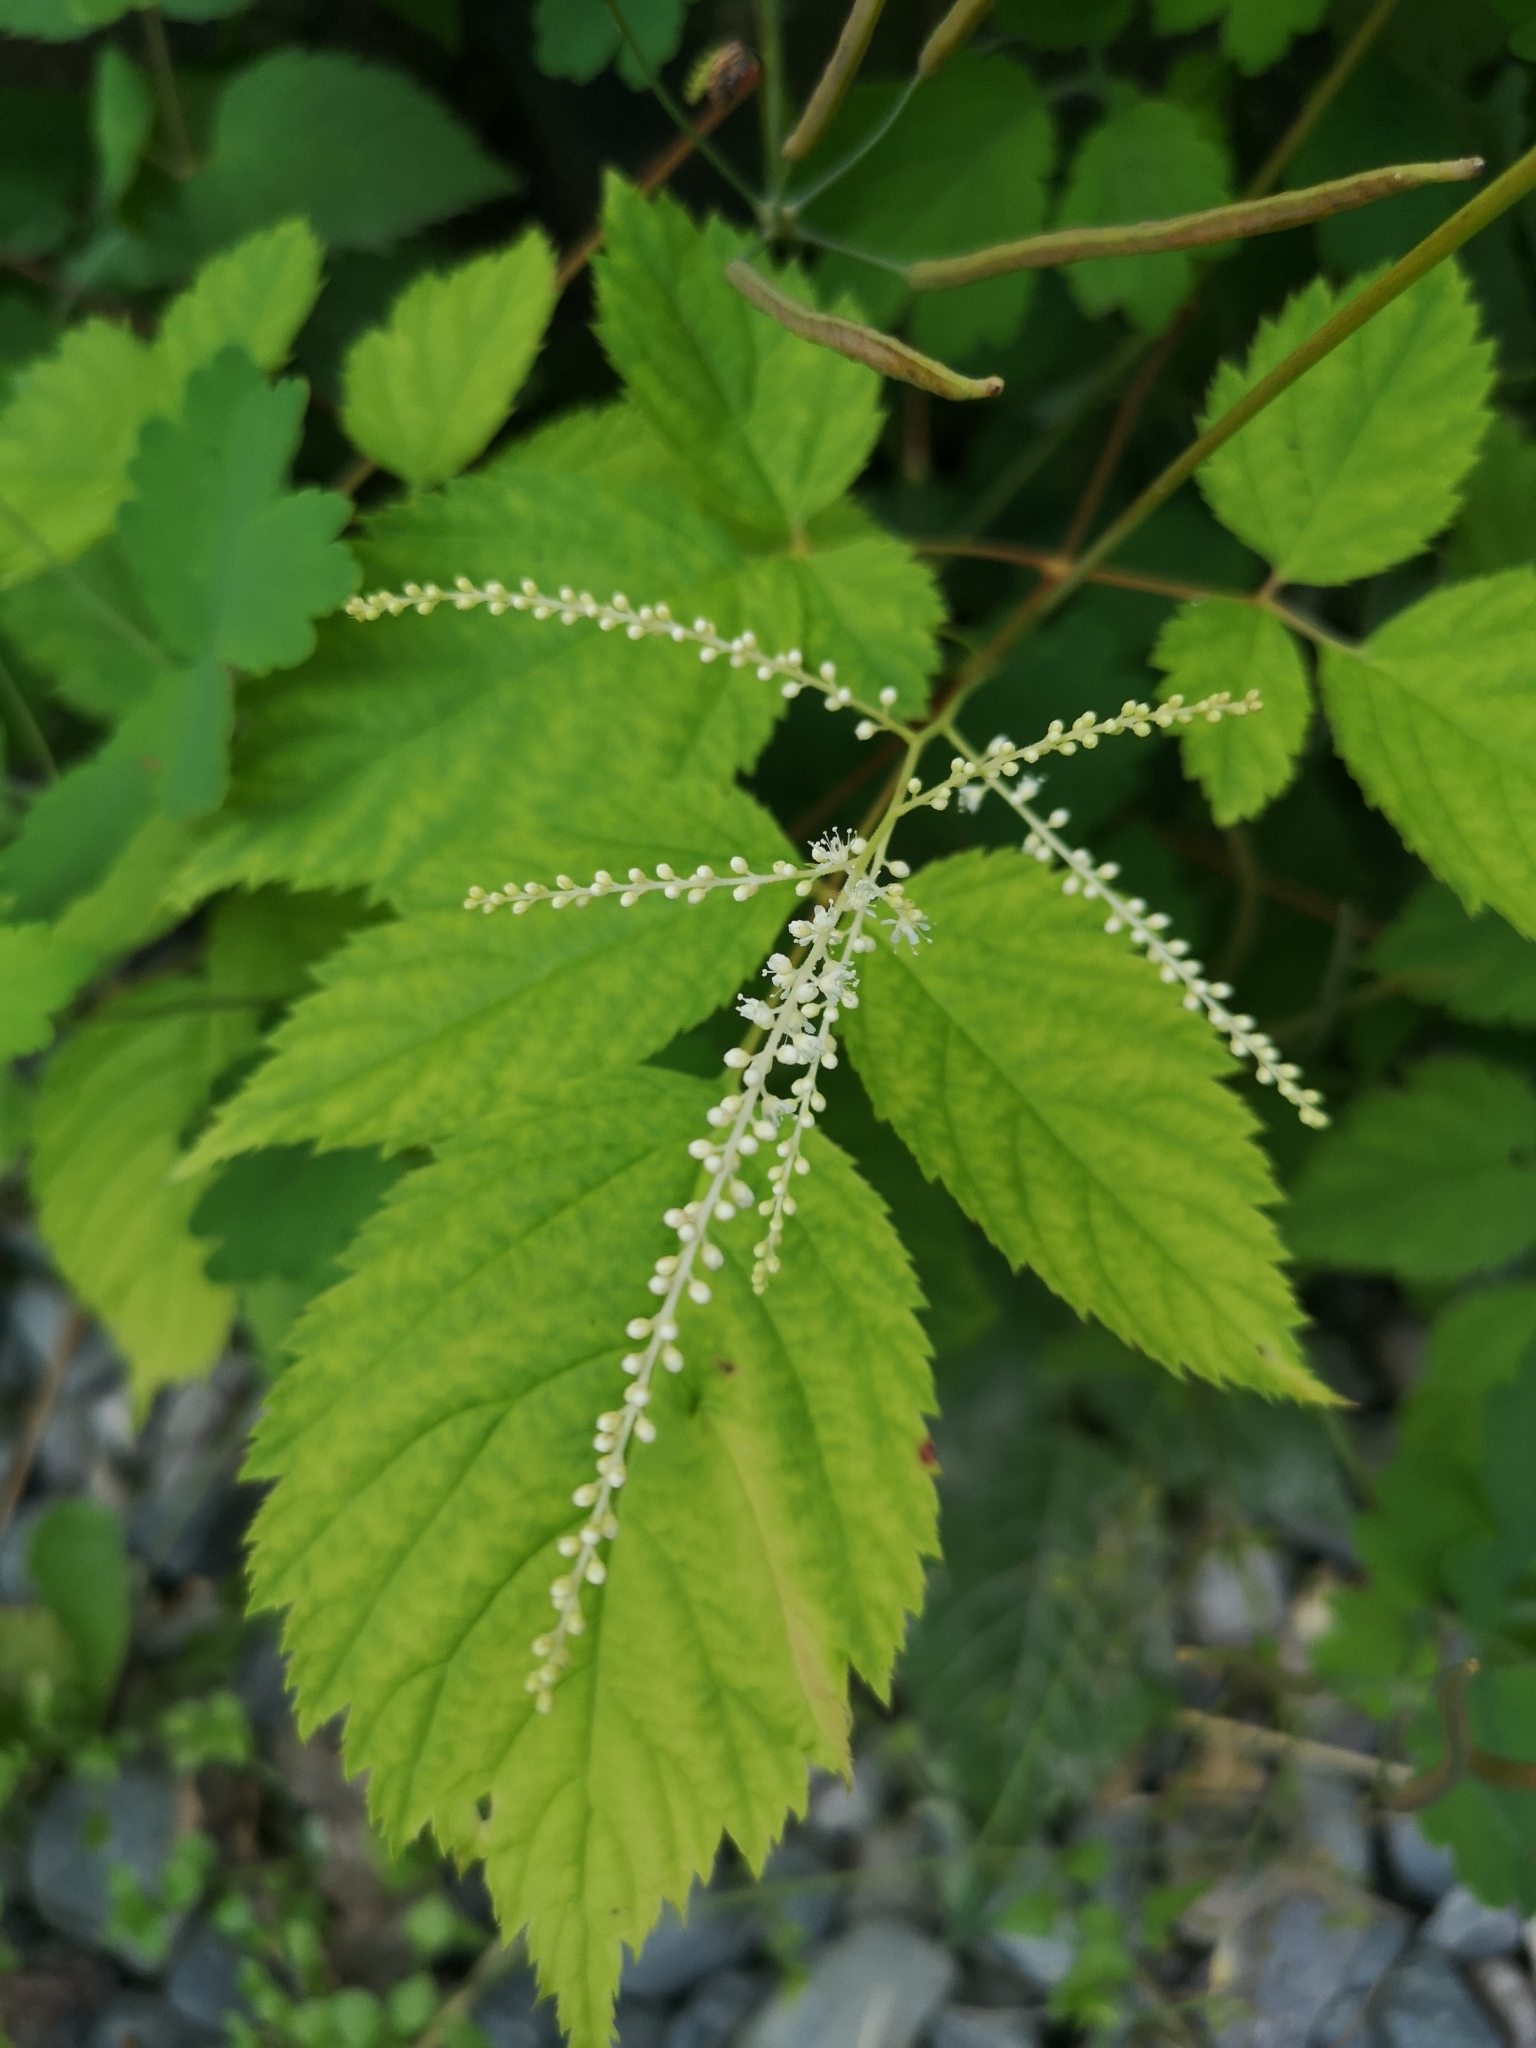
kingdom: Plantae
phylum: Tracheophyta
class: Magnoliopsida
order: Rosales
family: Rosaceae
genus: Aruncus
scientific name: Aruncus dioicus
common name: Buck's-beard
